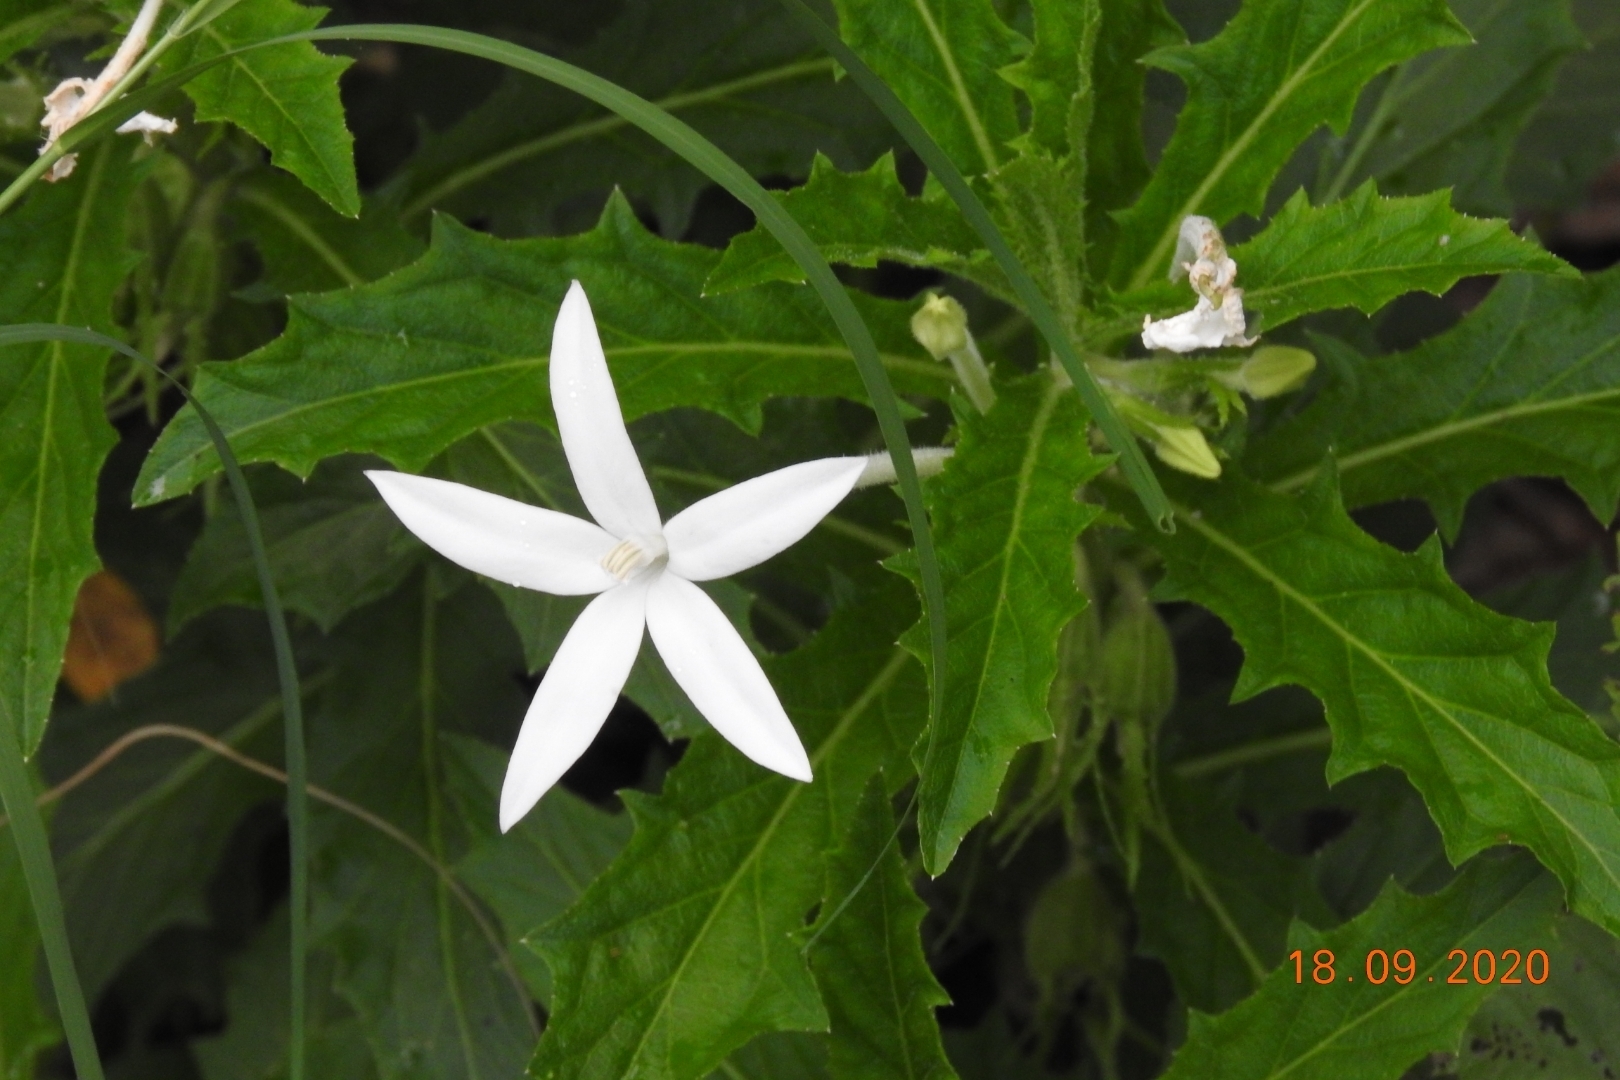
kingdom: Plantae
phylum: Tracheophyta
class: Magnoliopsida
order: Asterales
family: Campanulaceae
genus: Hippobroma
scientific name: Hippobroma longiflora
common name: Madamfate
